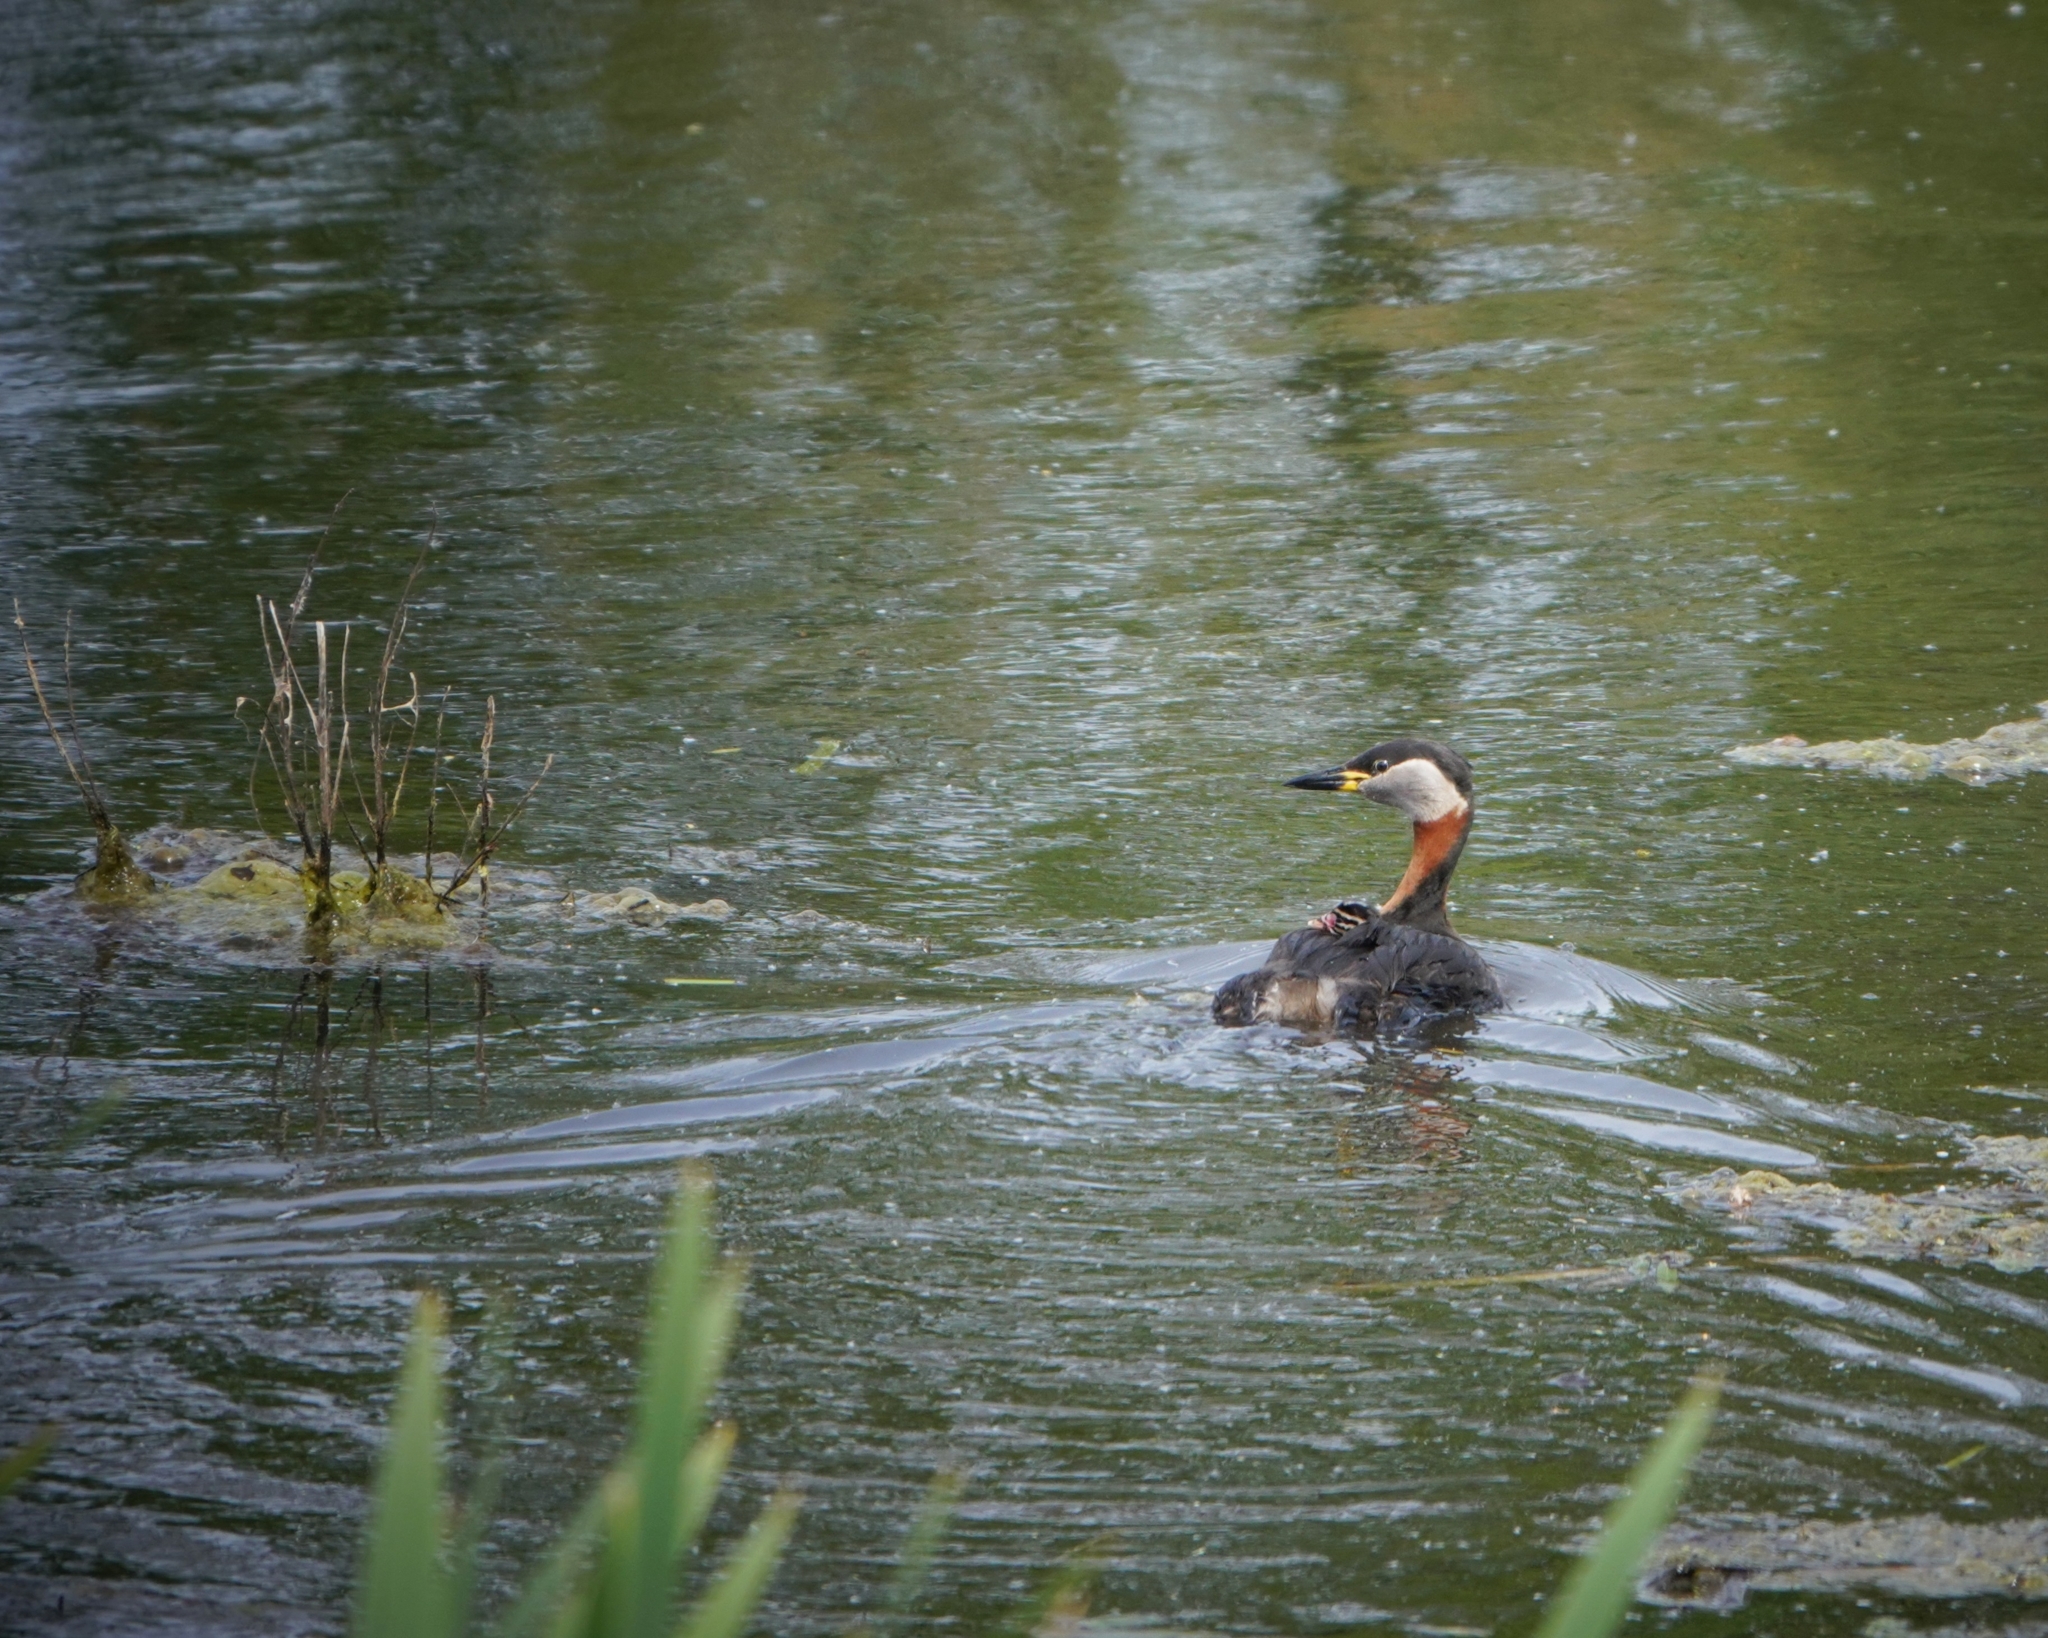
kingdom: Animalia
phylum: Chordata
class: Aves
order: Podicipediformes
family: Podicipedidae
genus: Podiceps
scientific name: Podiceps grisegena
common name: Red-necked grebe
